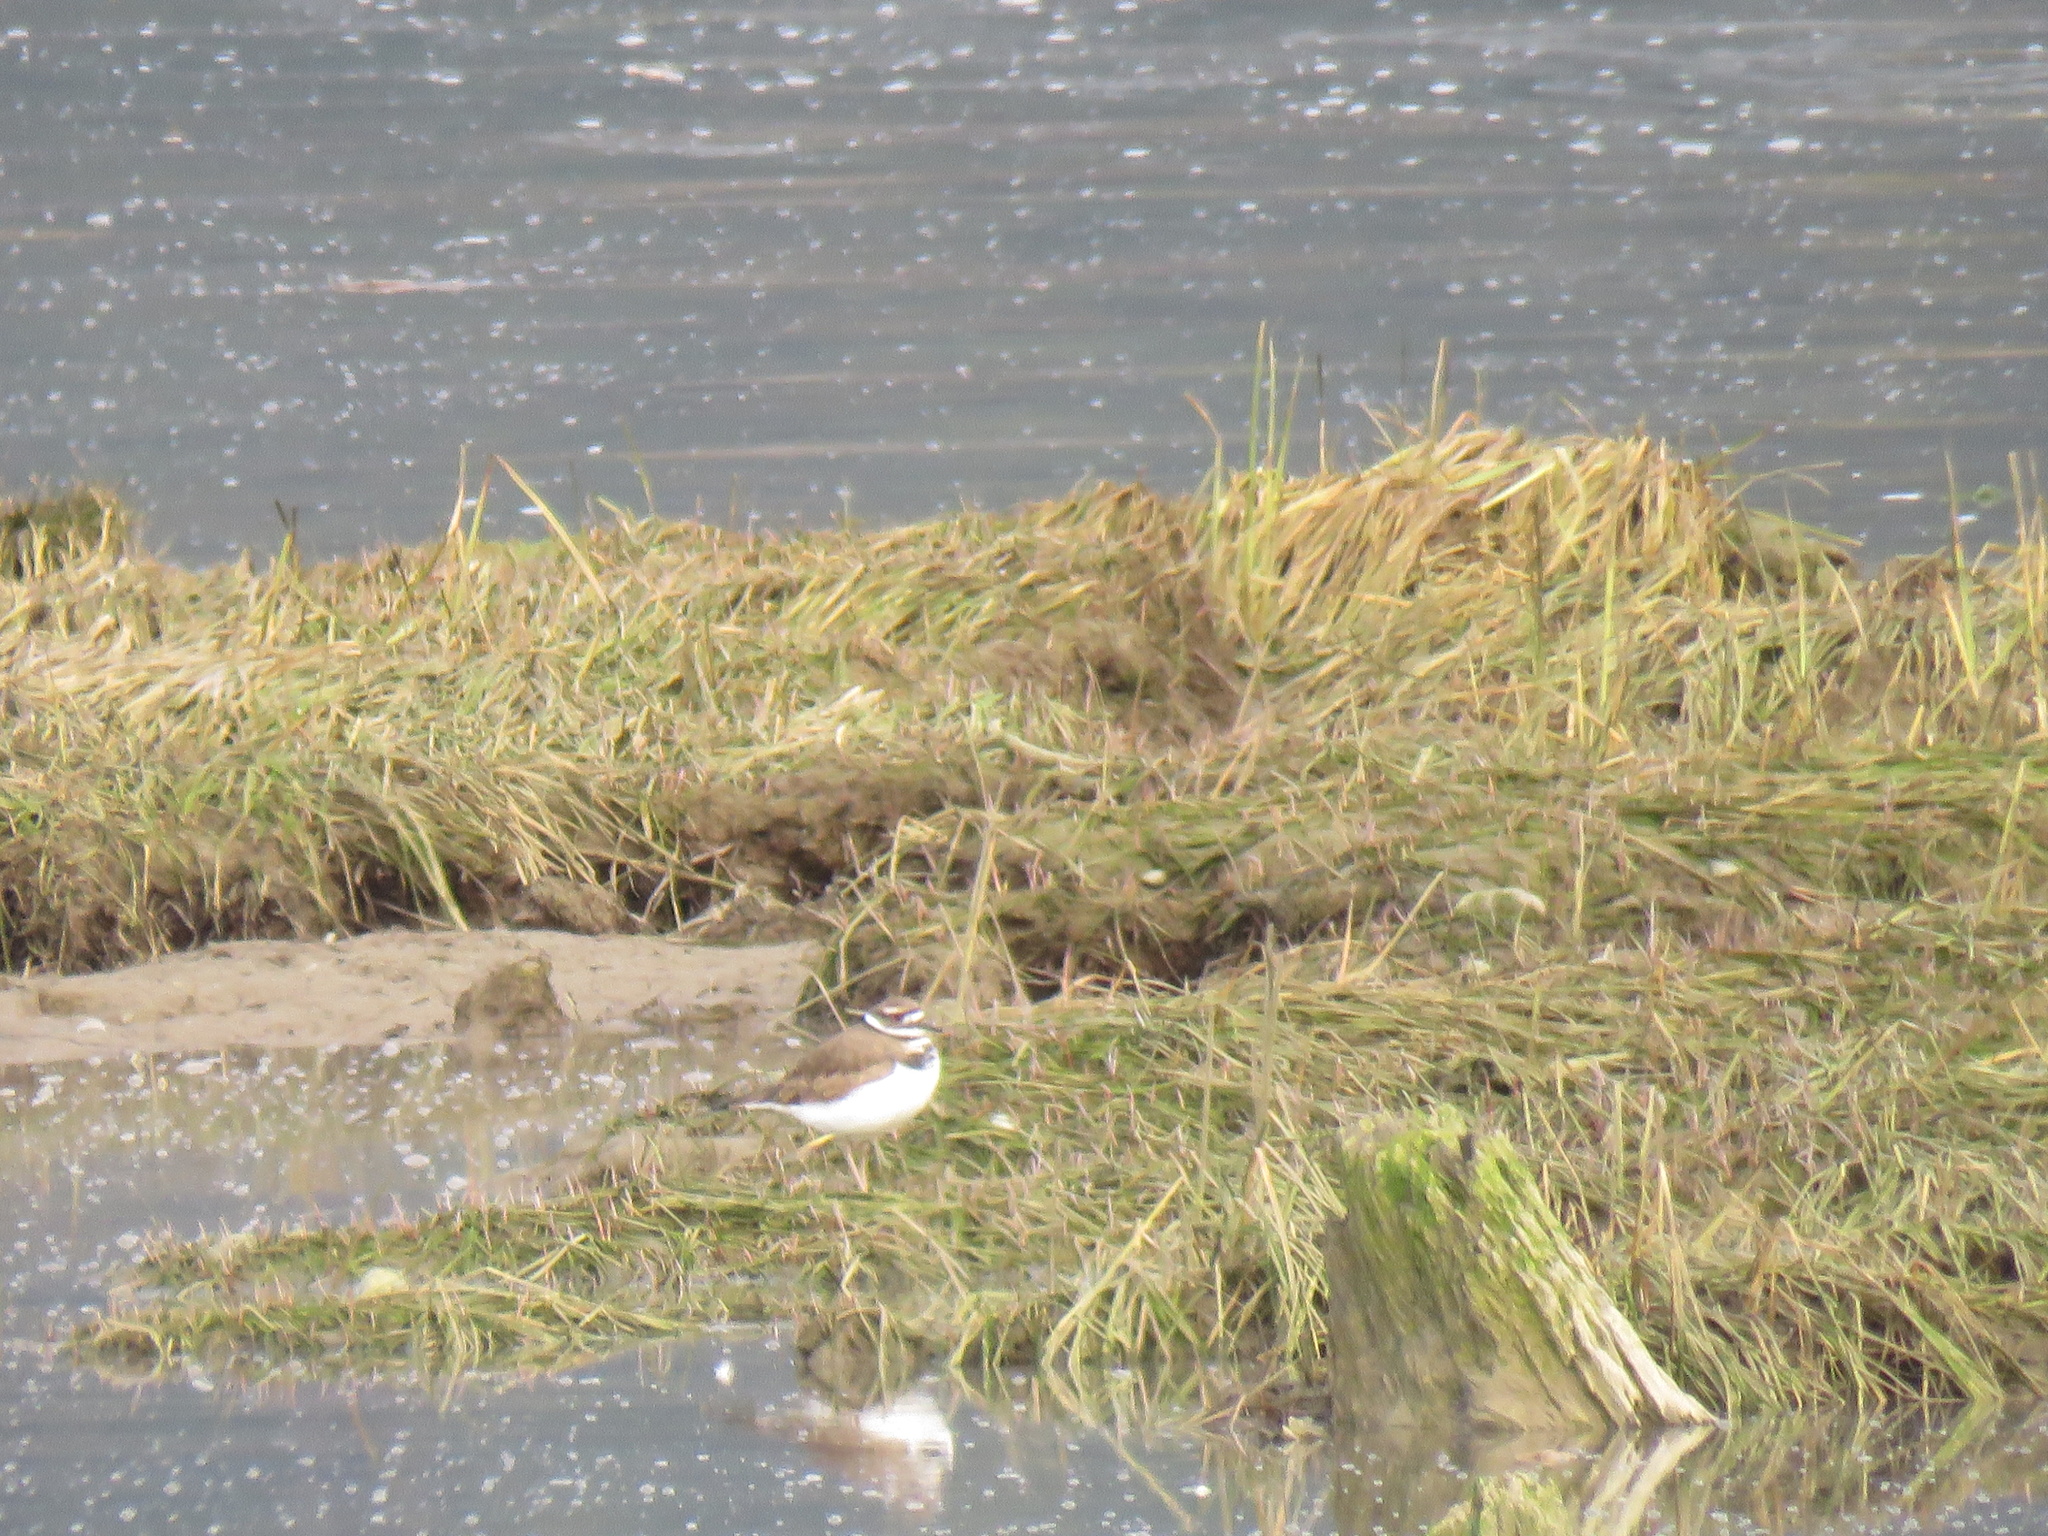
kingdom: Animalia
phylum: Chordata
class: Aves
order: Charadriiformes
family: Charadriidae
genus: Charadrius
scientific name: Charadrius vociferus
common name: Killdeer
